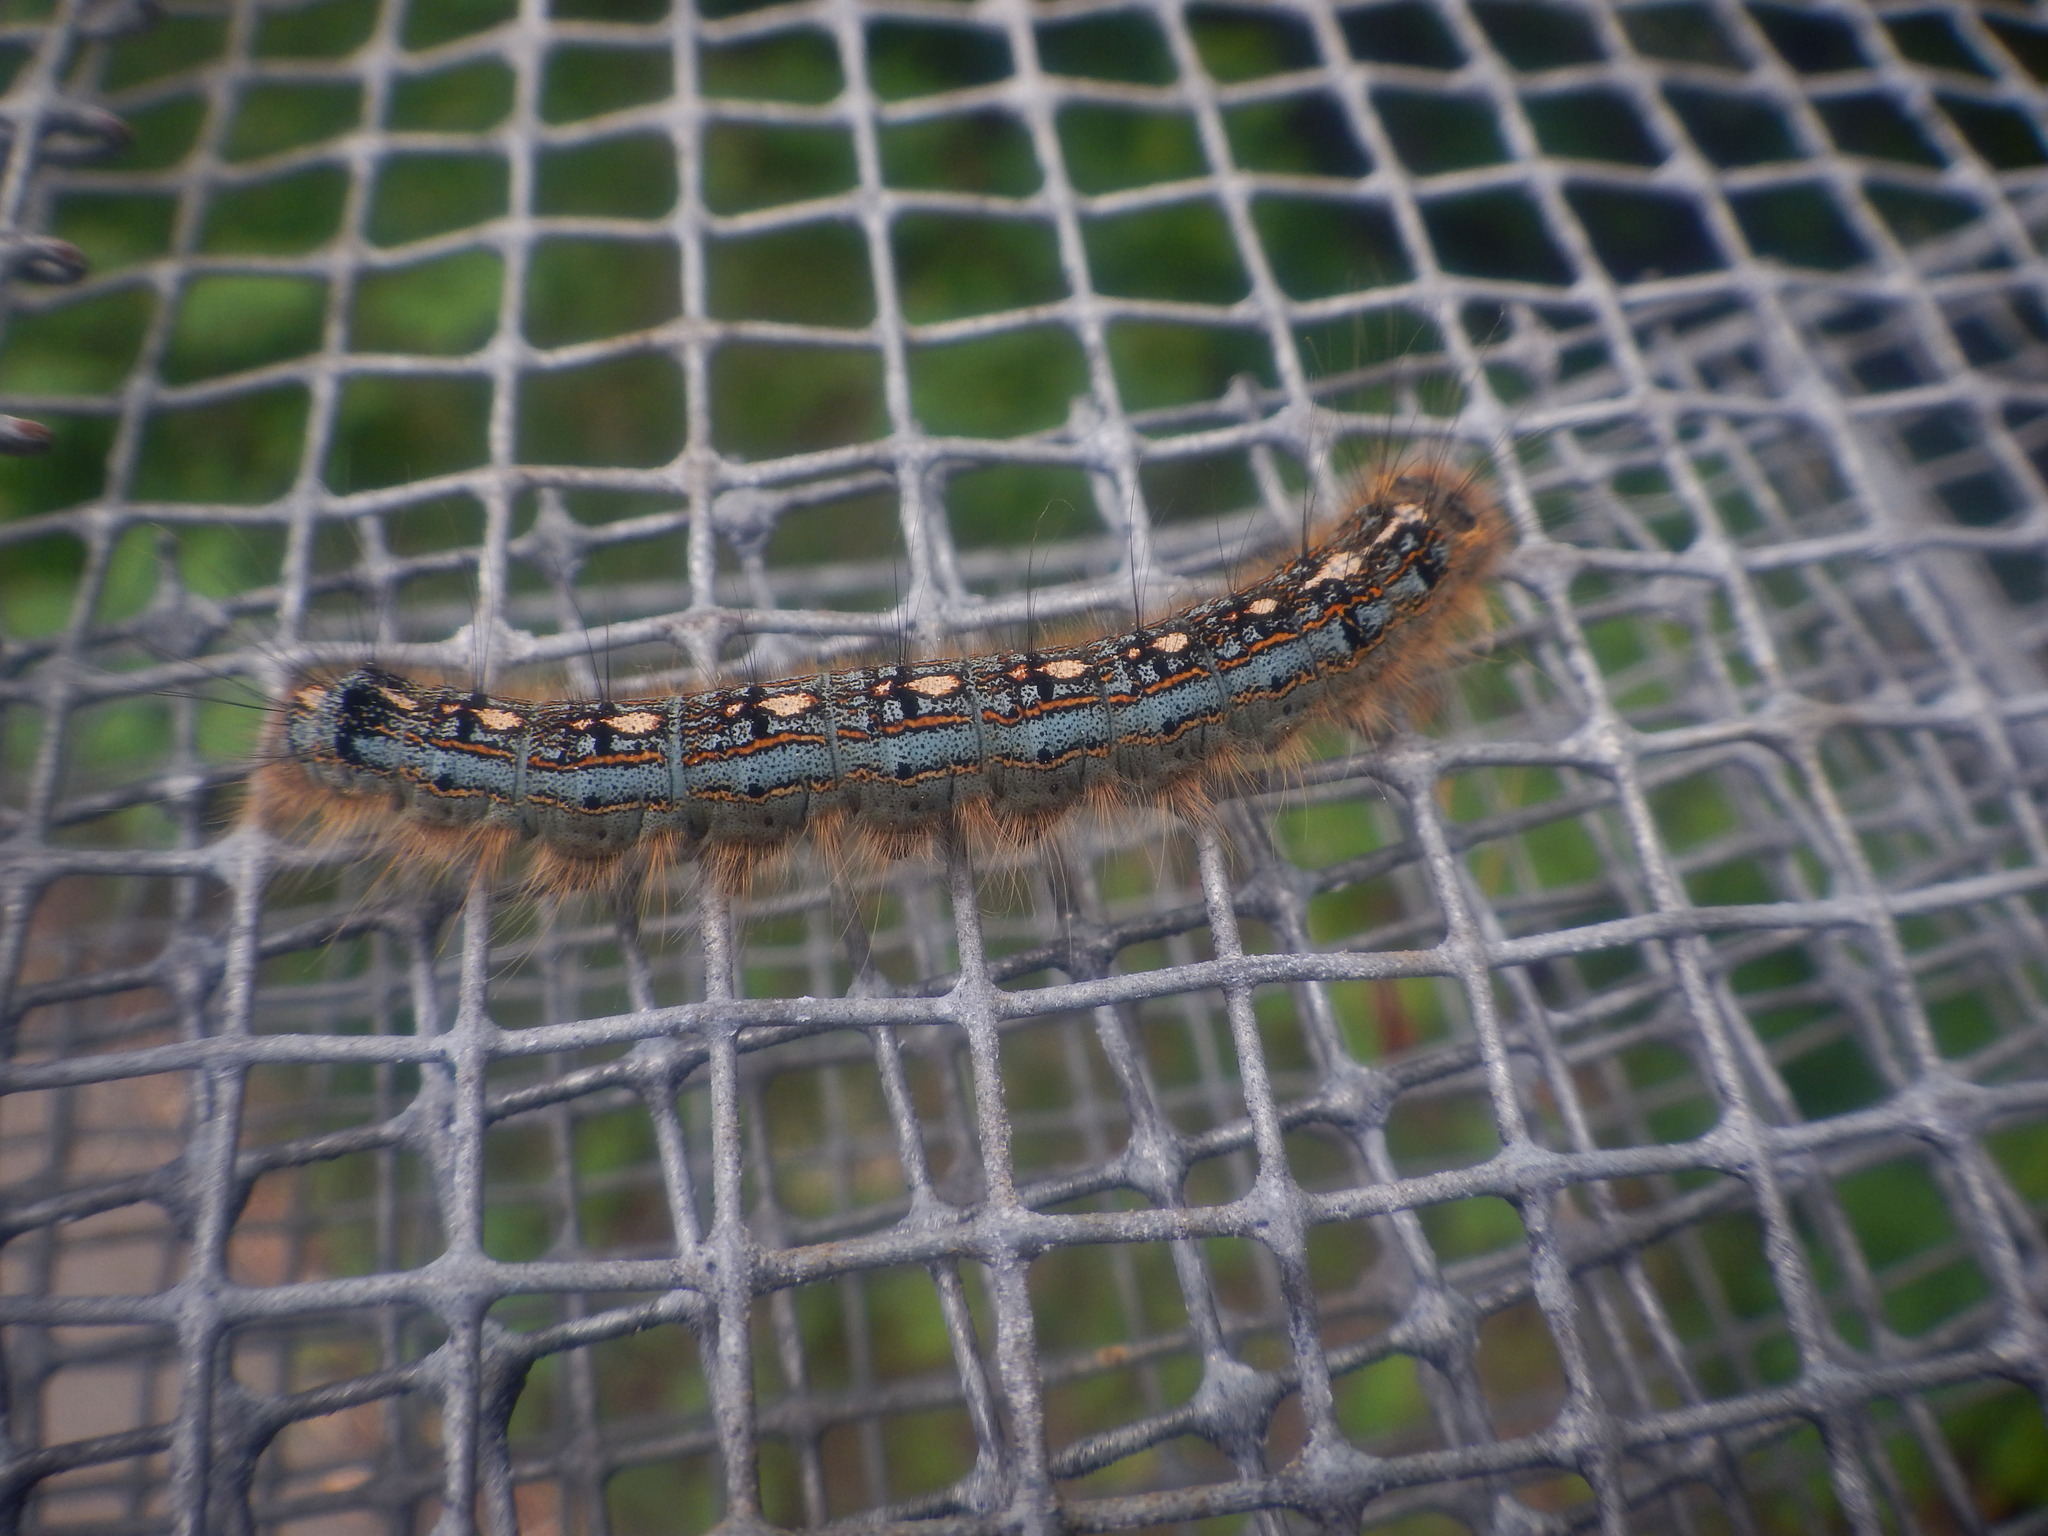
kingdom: Animalia
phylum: Arthropoda
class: Insecta
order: Lepidoptera
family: Lasiocampidae
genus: Malacosoma
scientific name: Malacosoma disstria
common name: Forest tent caterpillar
